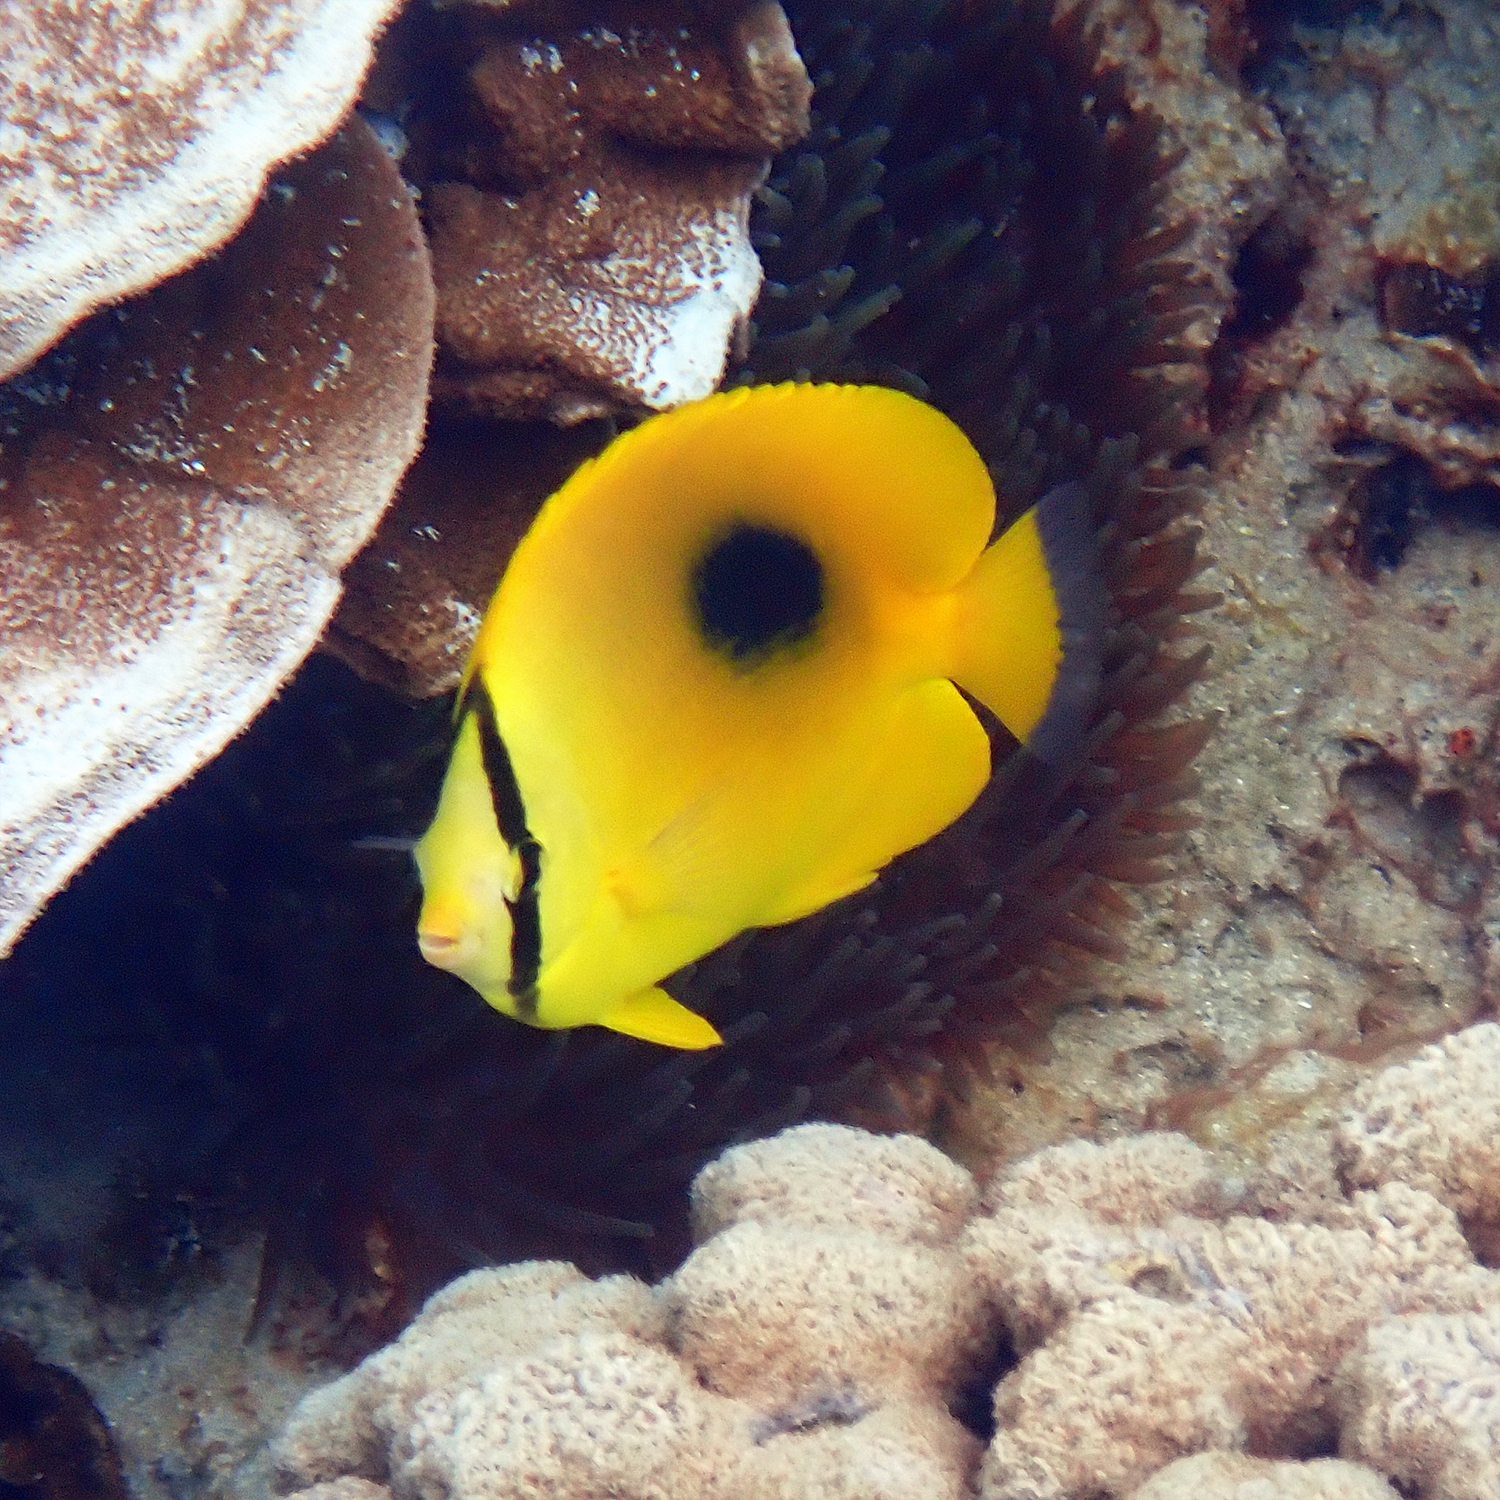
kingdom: Animalia
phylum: Chordata
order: Perciformes
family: Chaetodontidae
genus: Chaetodon
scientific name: Chaetodon speculum
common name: Mirror butterflyfish
